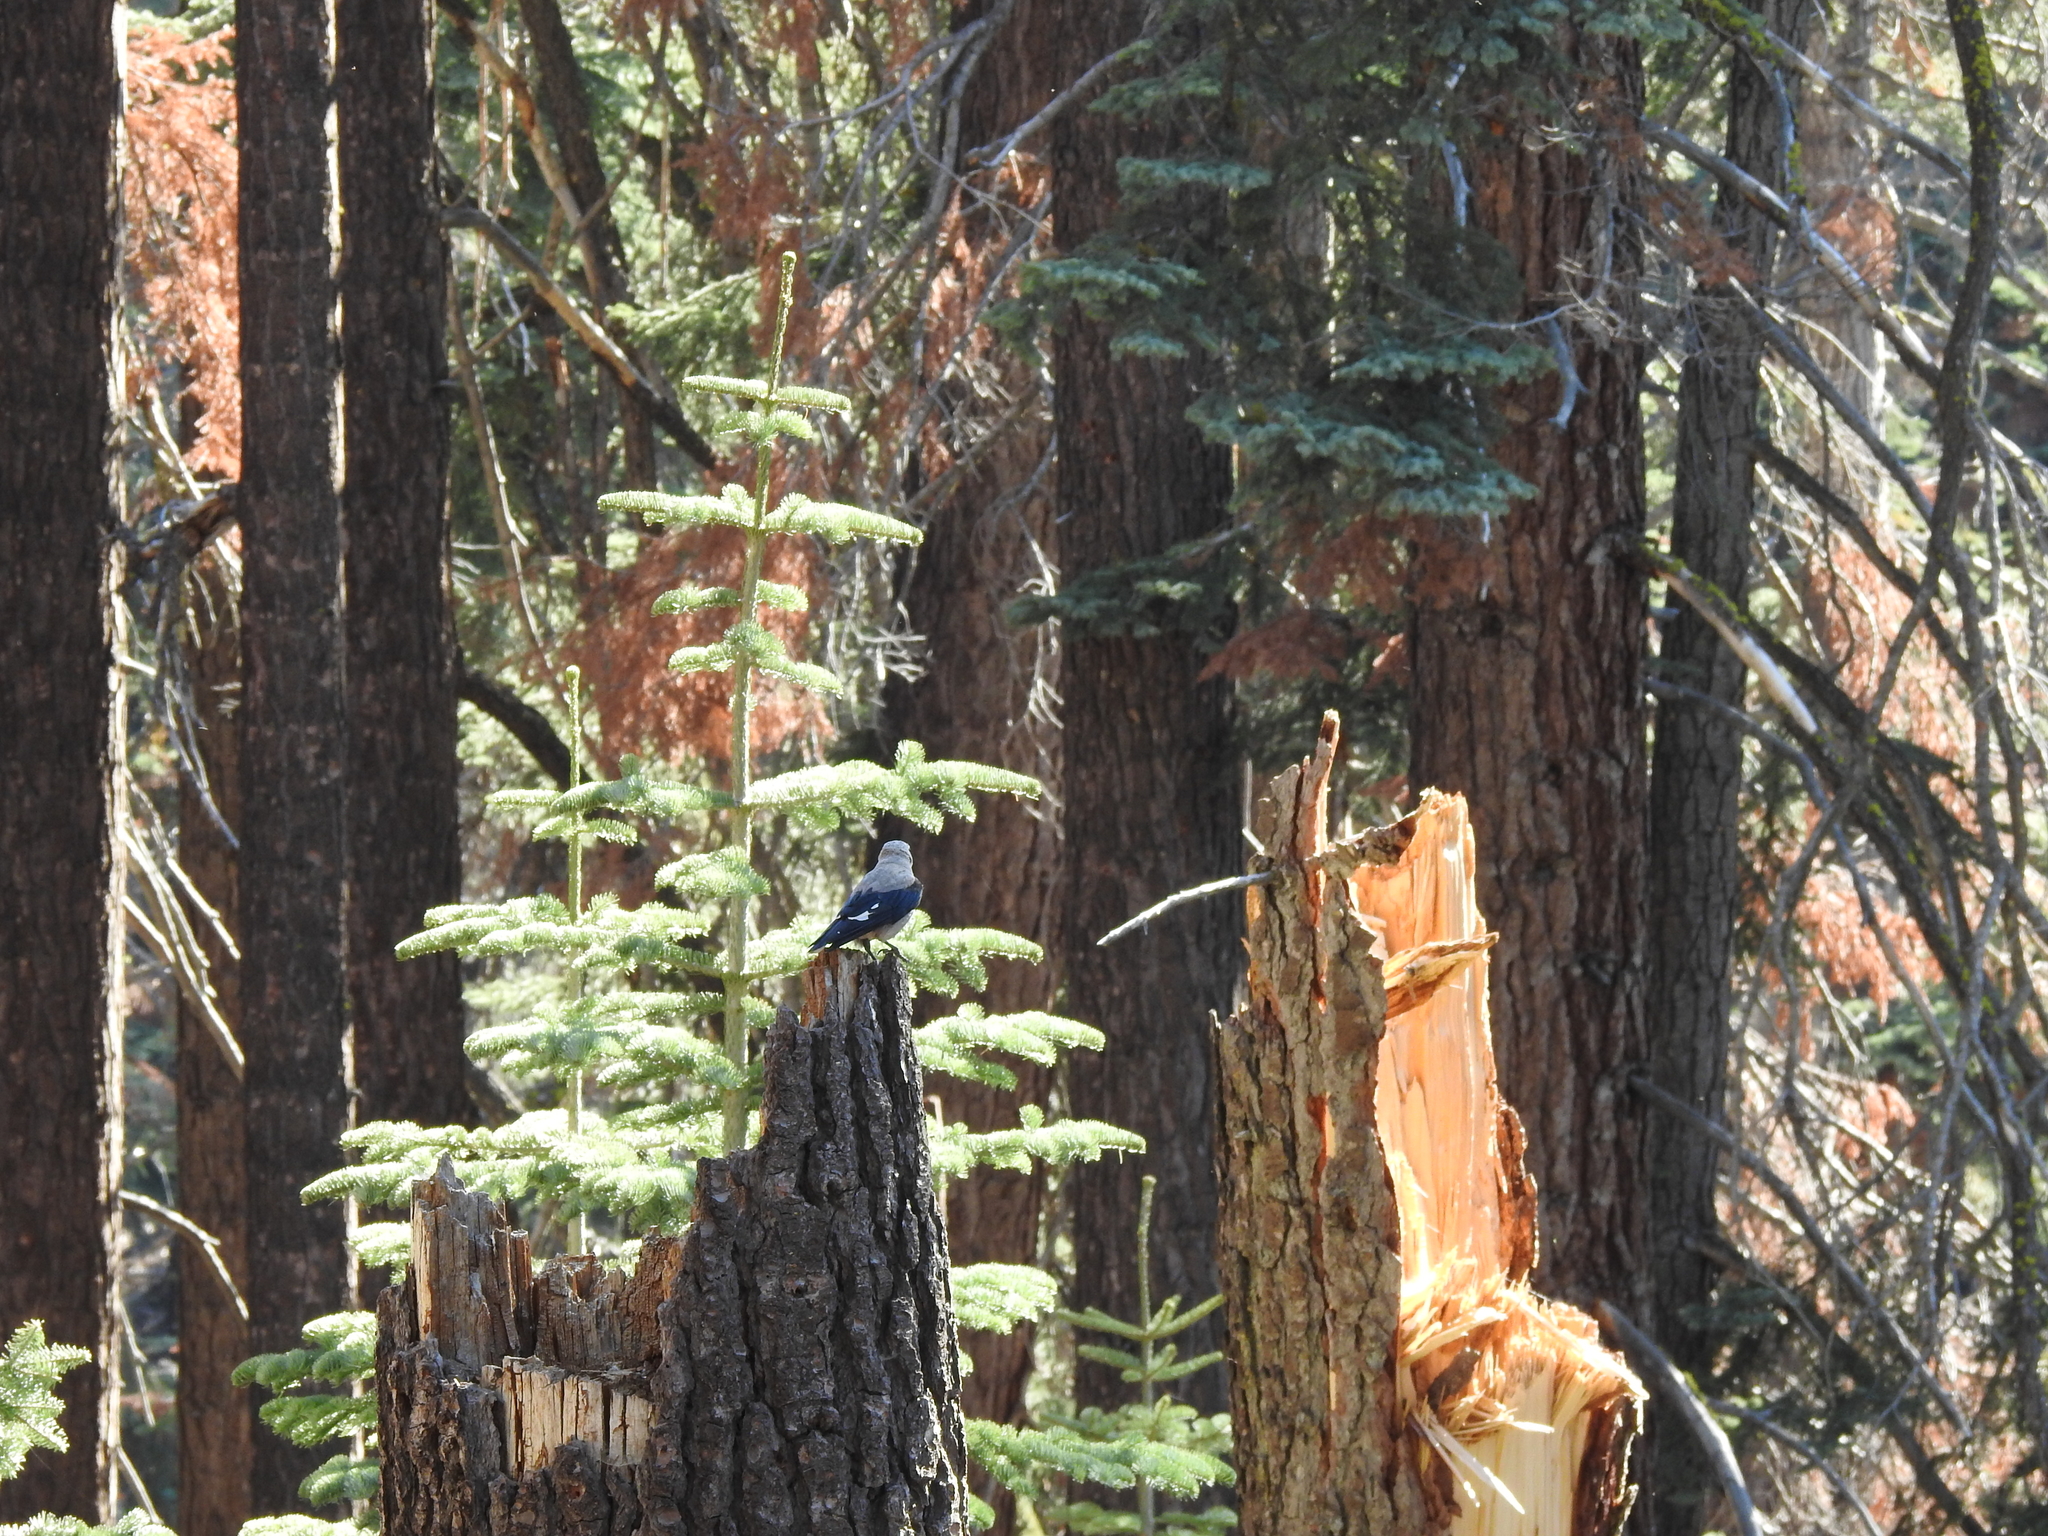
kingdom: Animalia
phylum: Chordata
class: Aves
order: Passeriformes
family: Corvidae
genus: Nucifraga
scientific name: Nucifraga columbiana
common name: Clark's nutcracker
